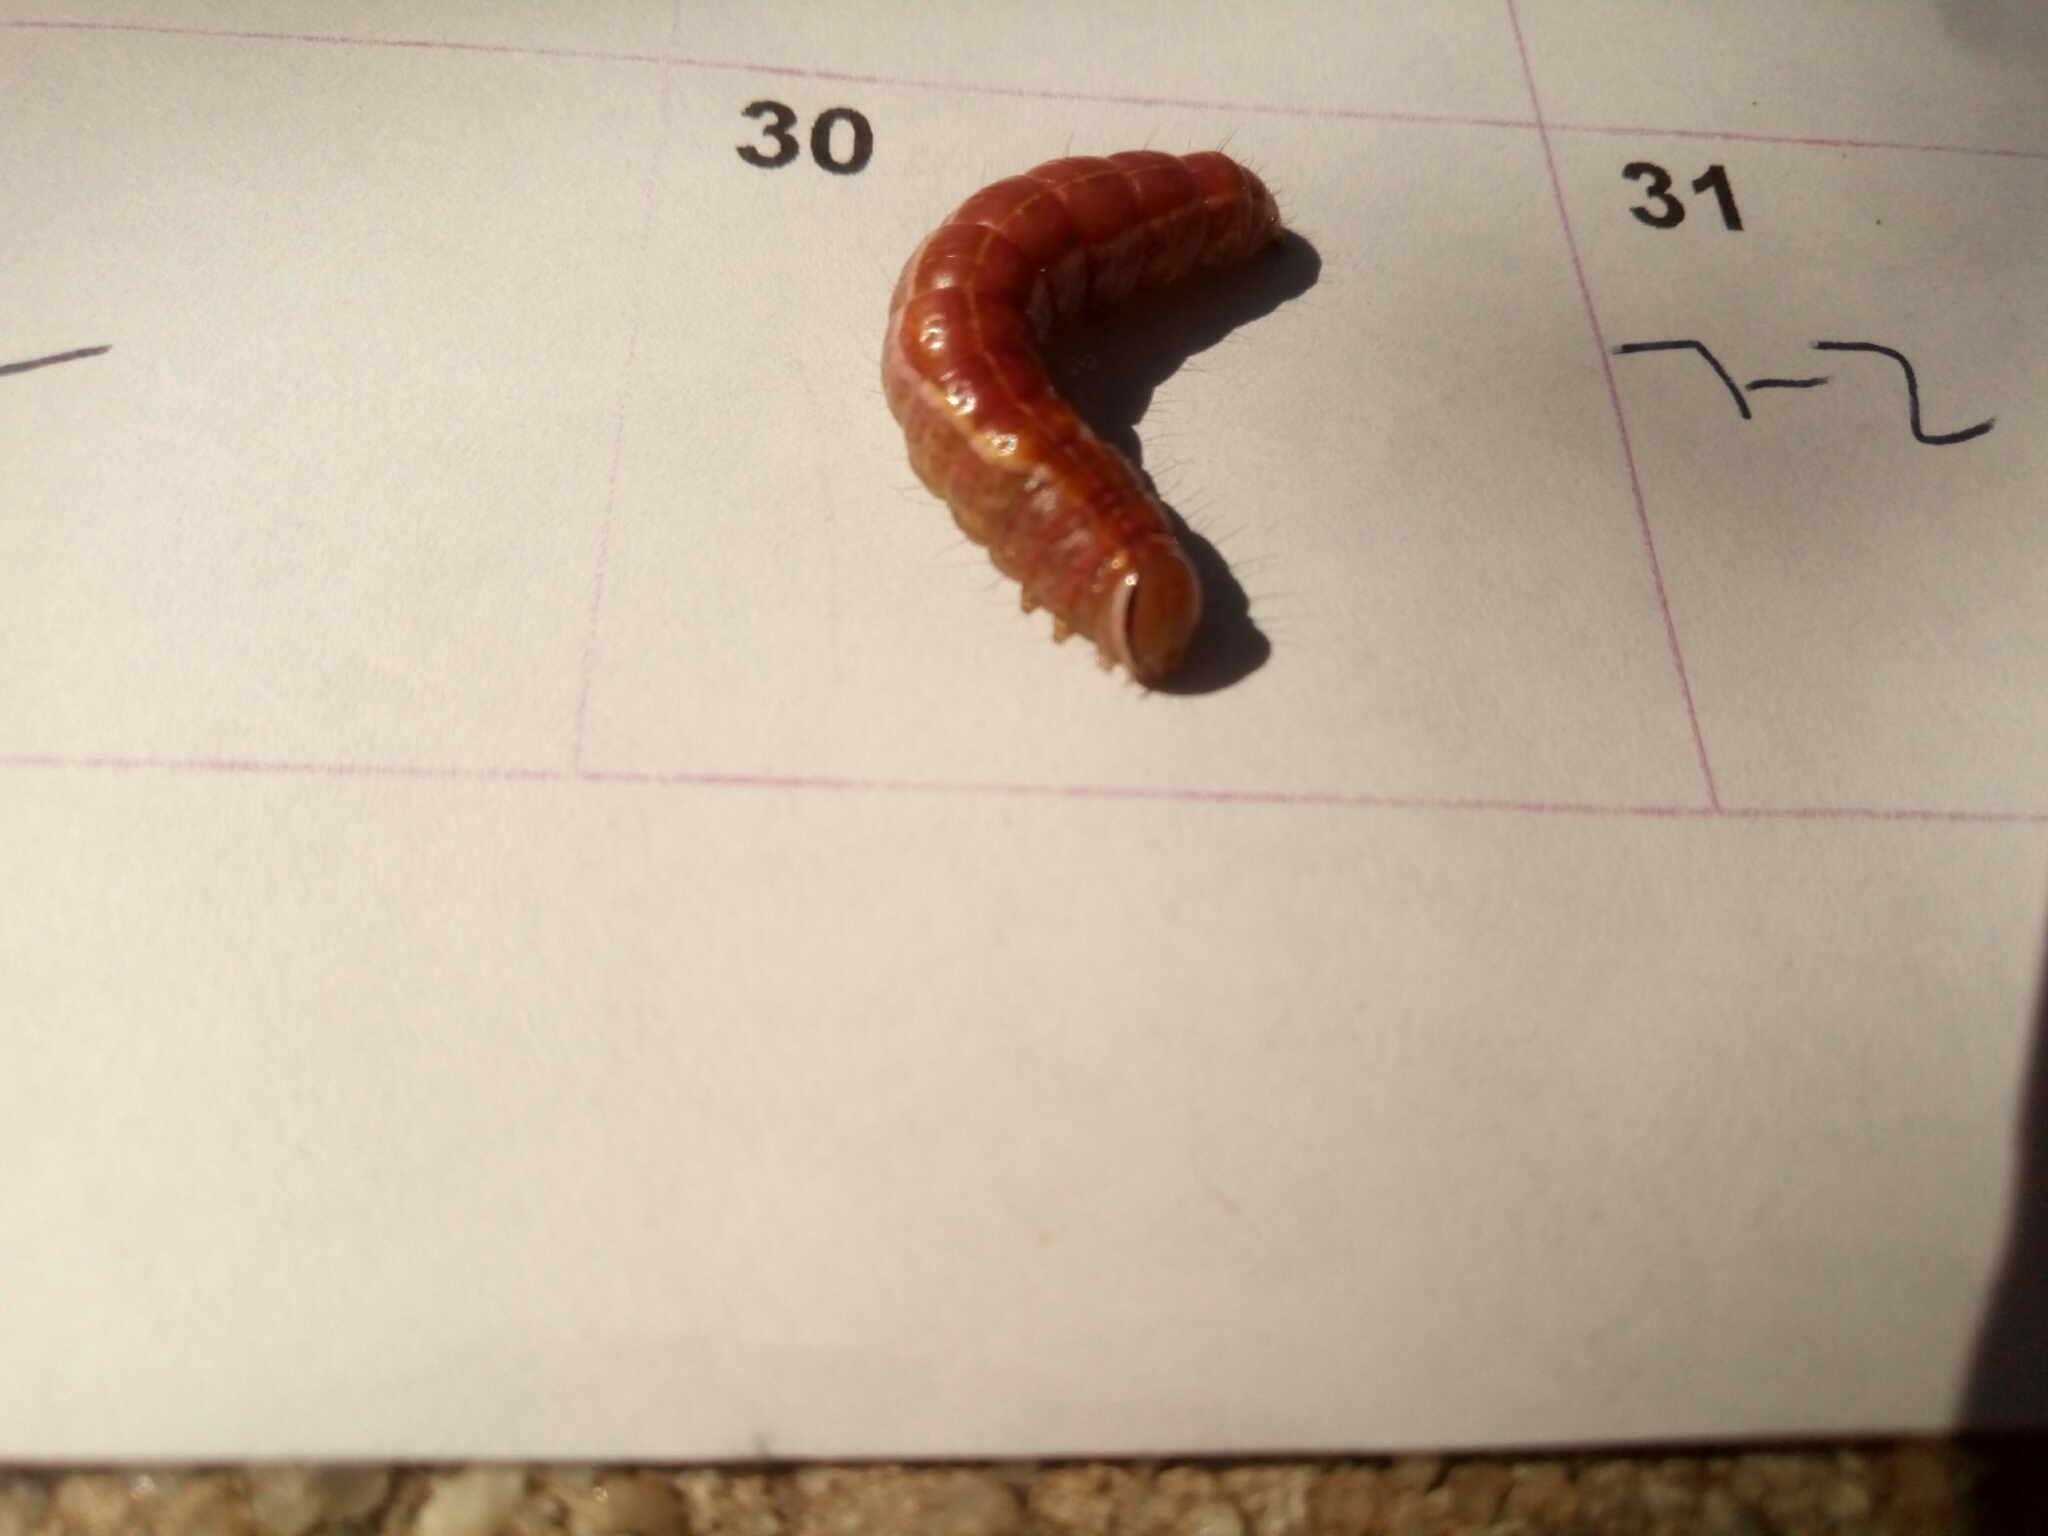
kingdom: Animalia
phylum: Arthropoda
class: Insecta
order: Lepidoptera
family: Notodontidae
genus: Lochmaeus
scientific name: Lochmaeus manteo
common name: Variable oakleaf caterpillar moth
